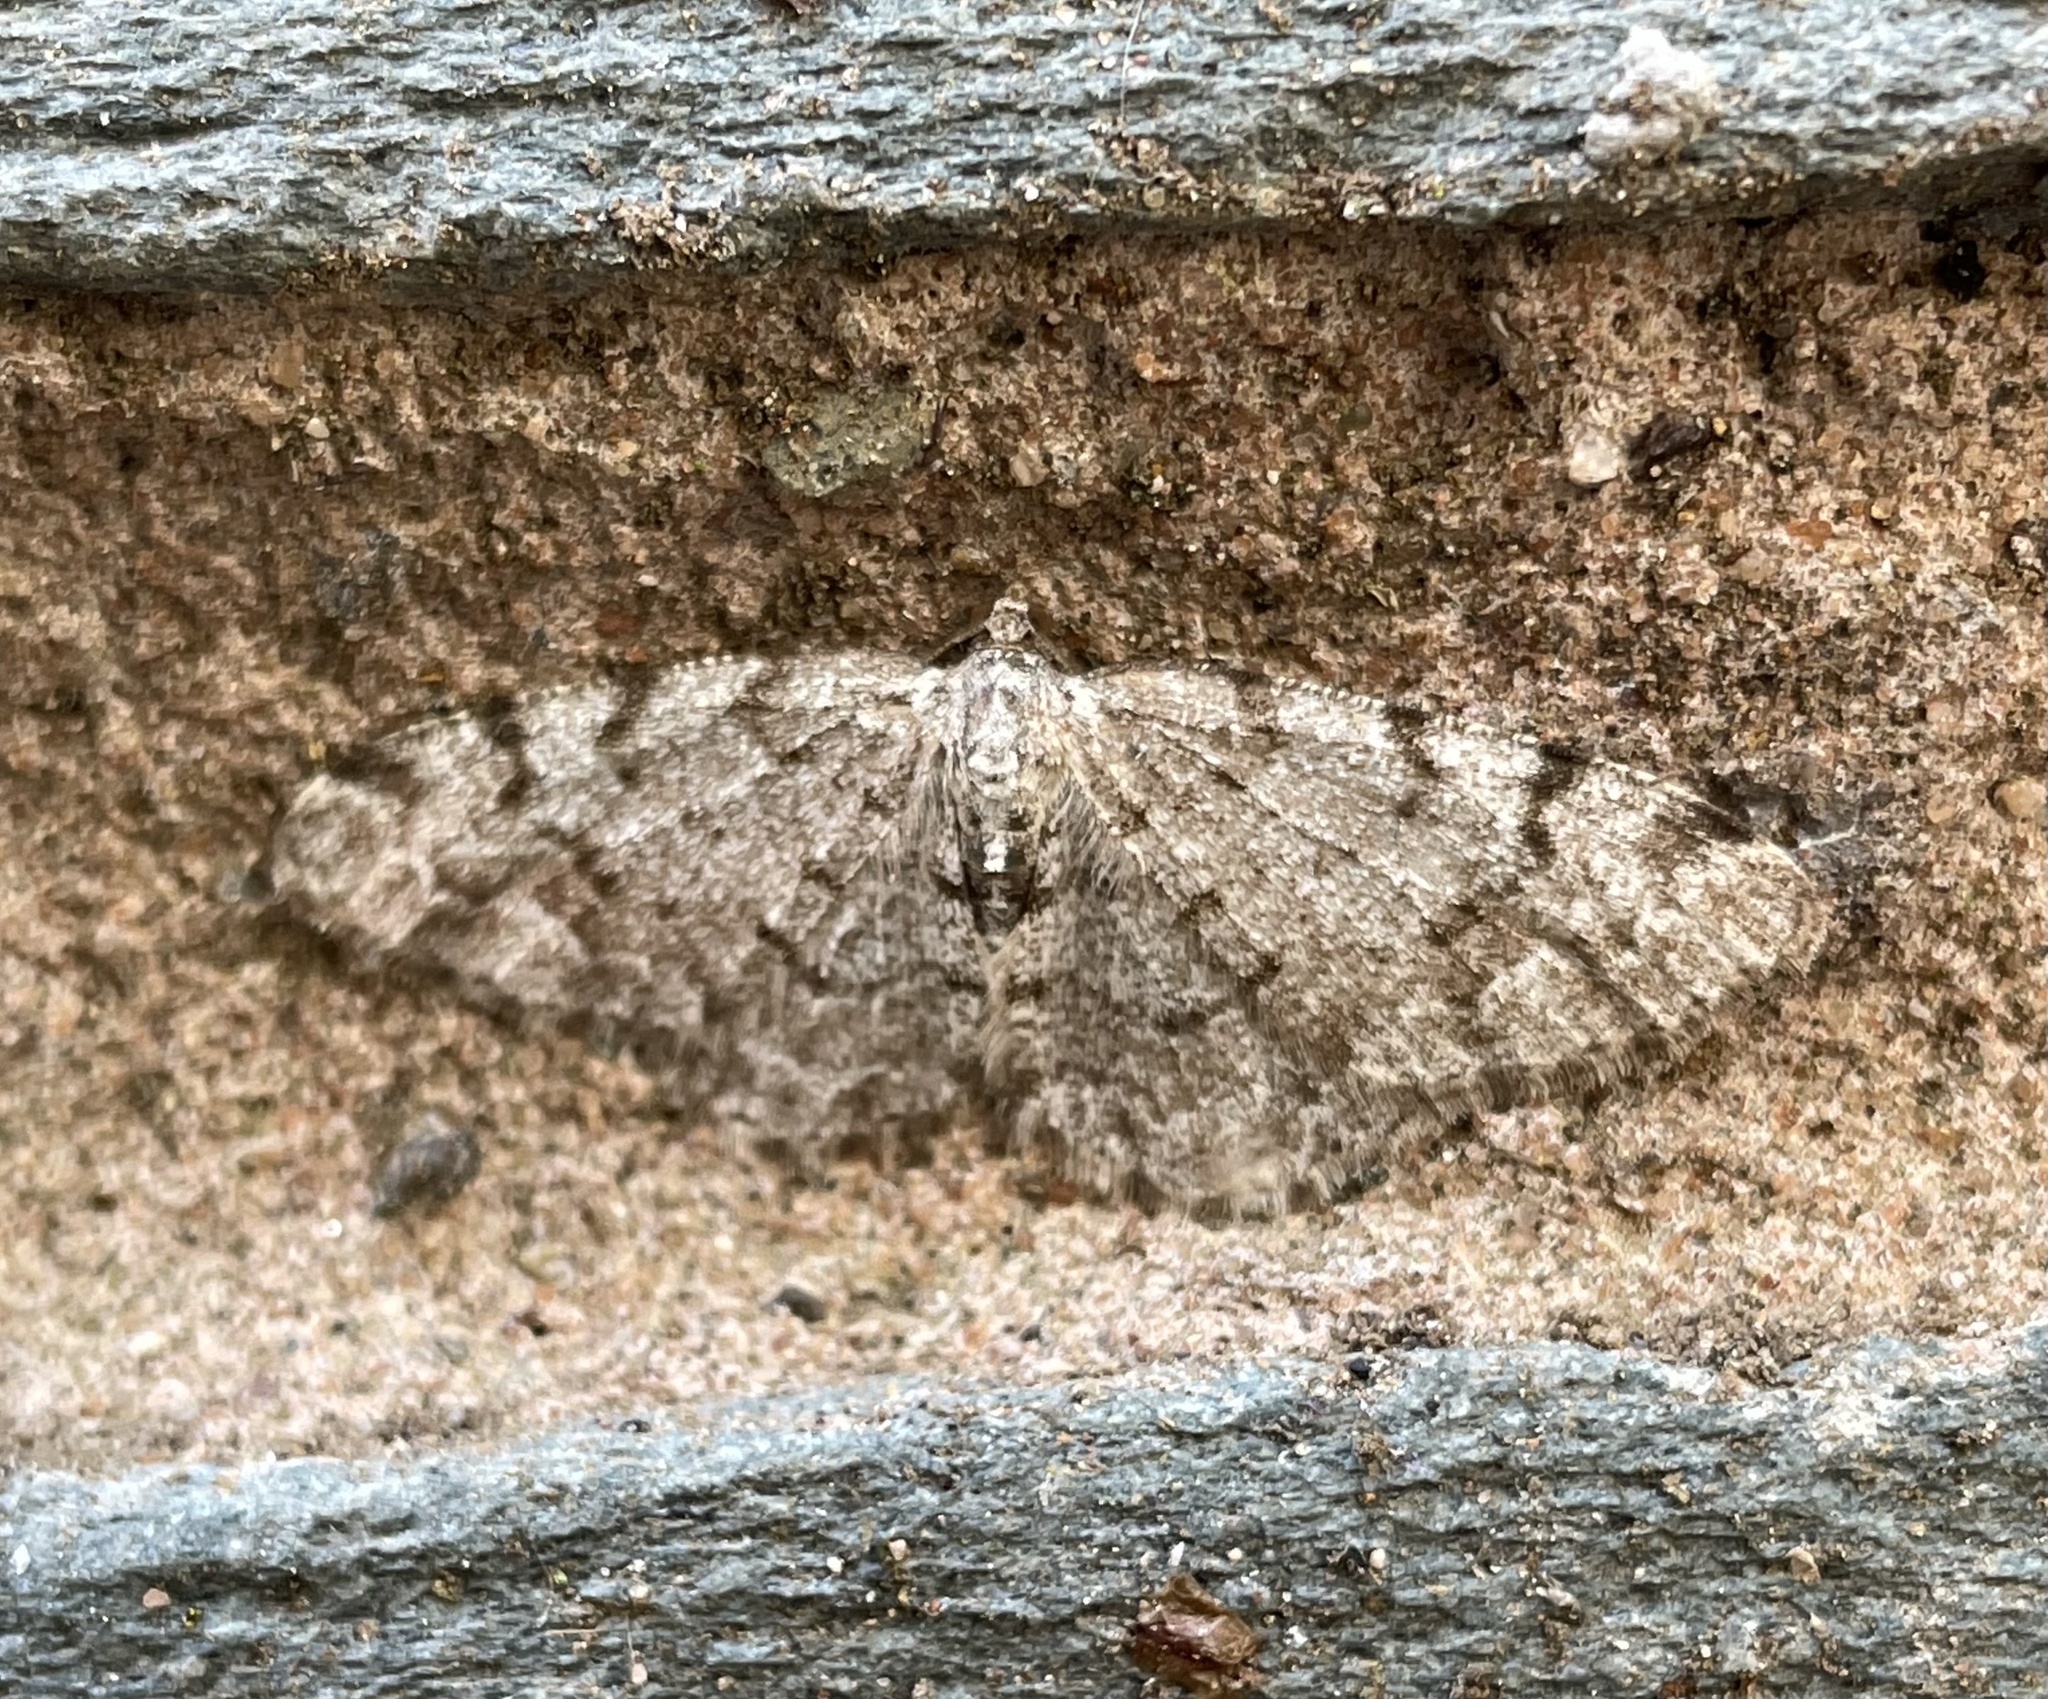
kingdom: Animalia
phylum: Arthropoda
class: Insecta
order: Lepidoptera
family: Geometridae
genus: Aethalura
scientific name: Aethalura punctulata
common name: Grey birch
